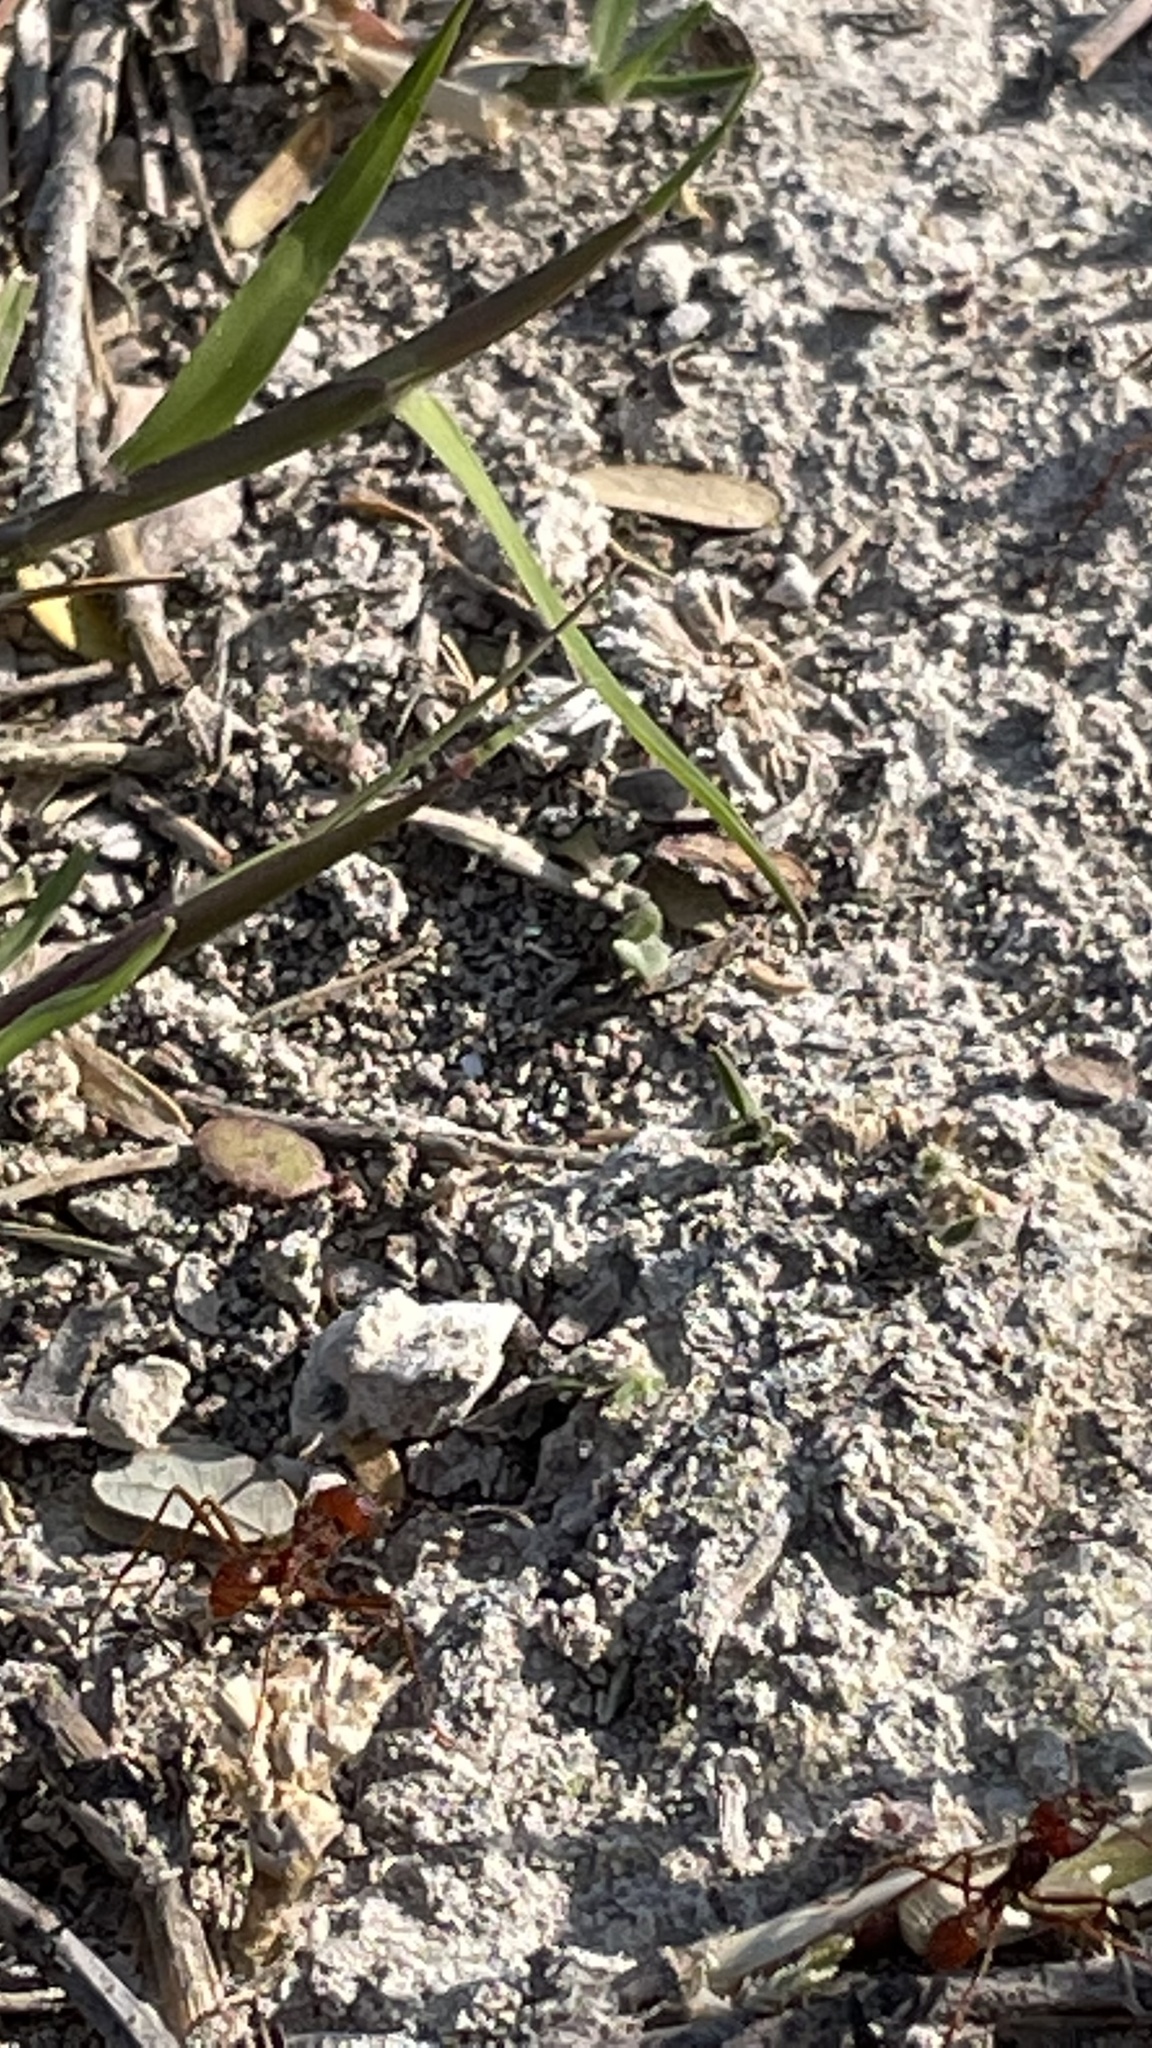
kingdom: Animalia
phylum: Arthropoda
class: Insecta
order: Hymenoptera
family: Formicidae
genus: Atta
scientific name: Atta mexicana
